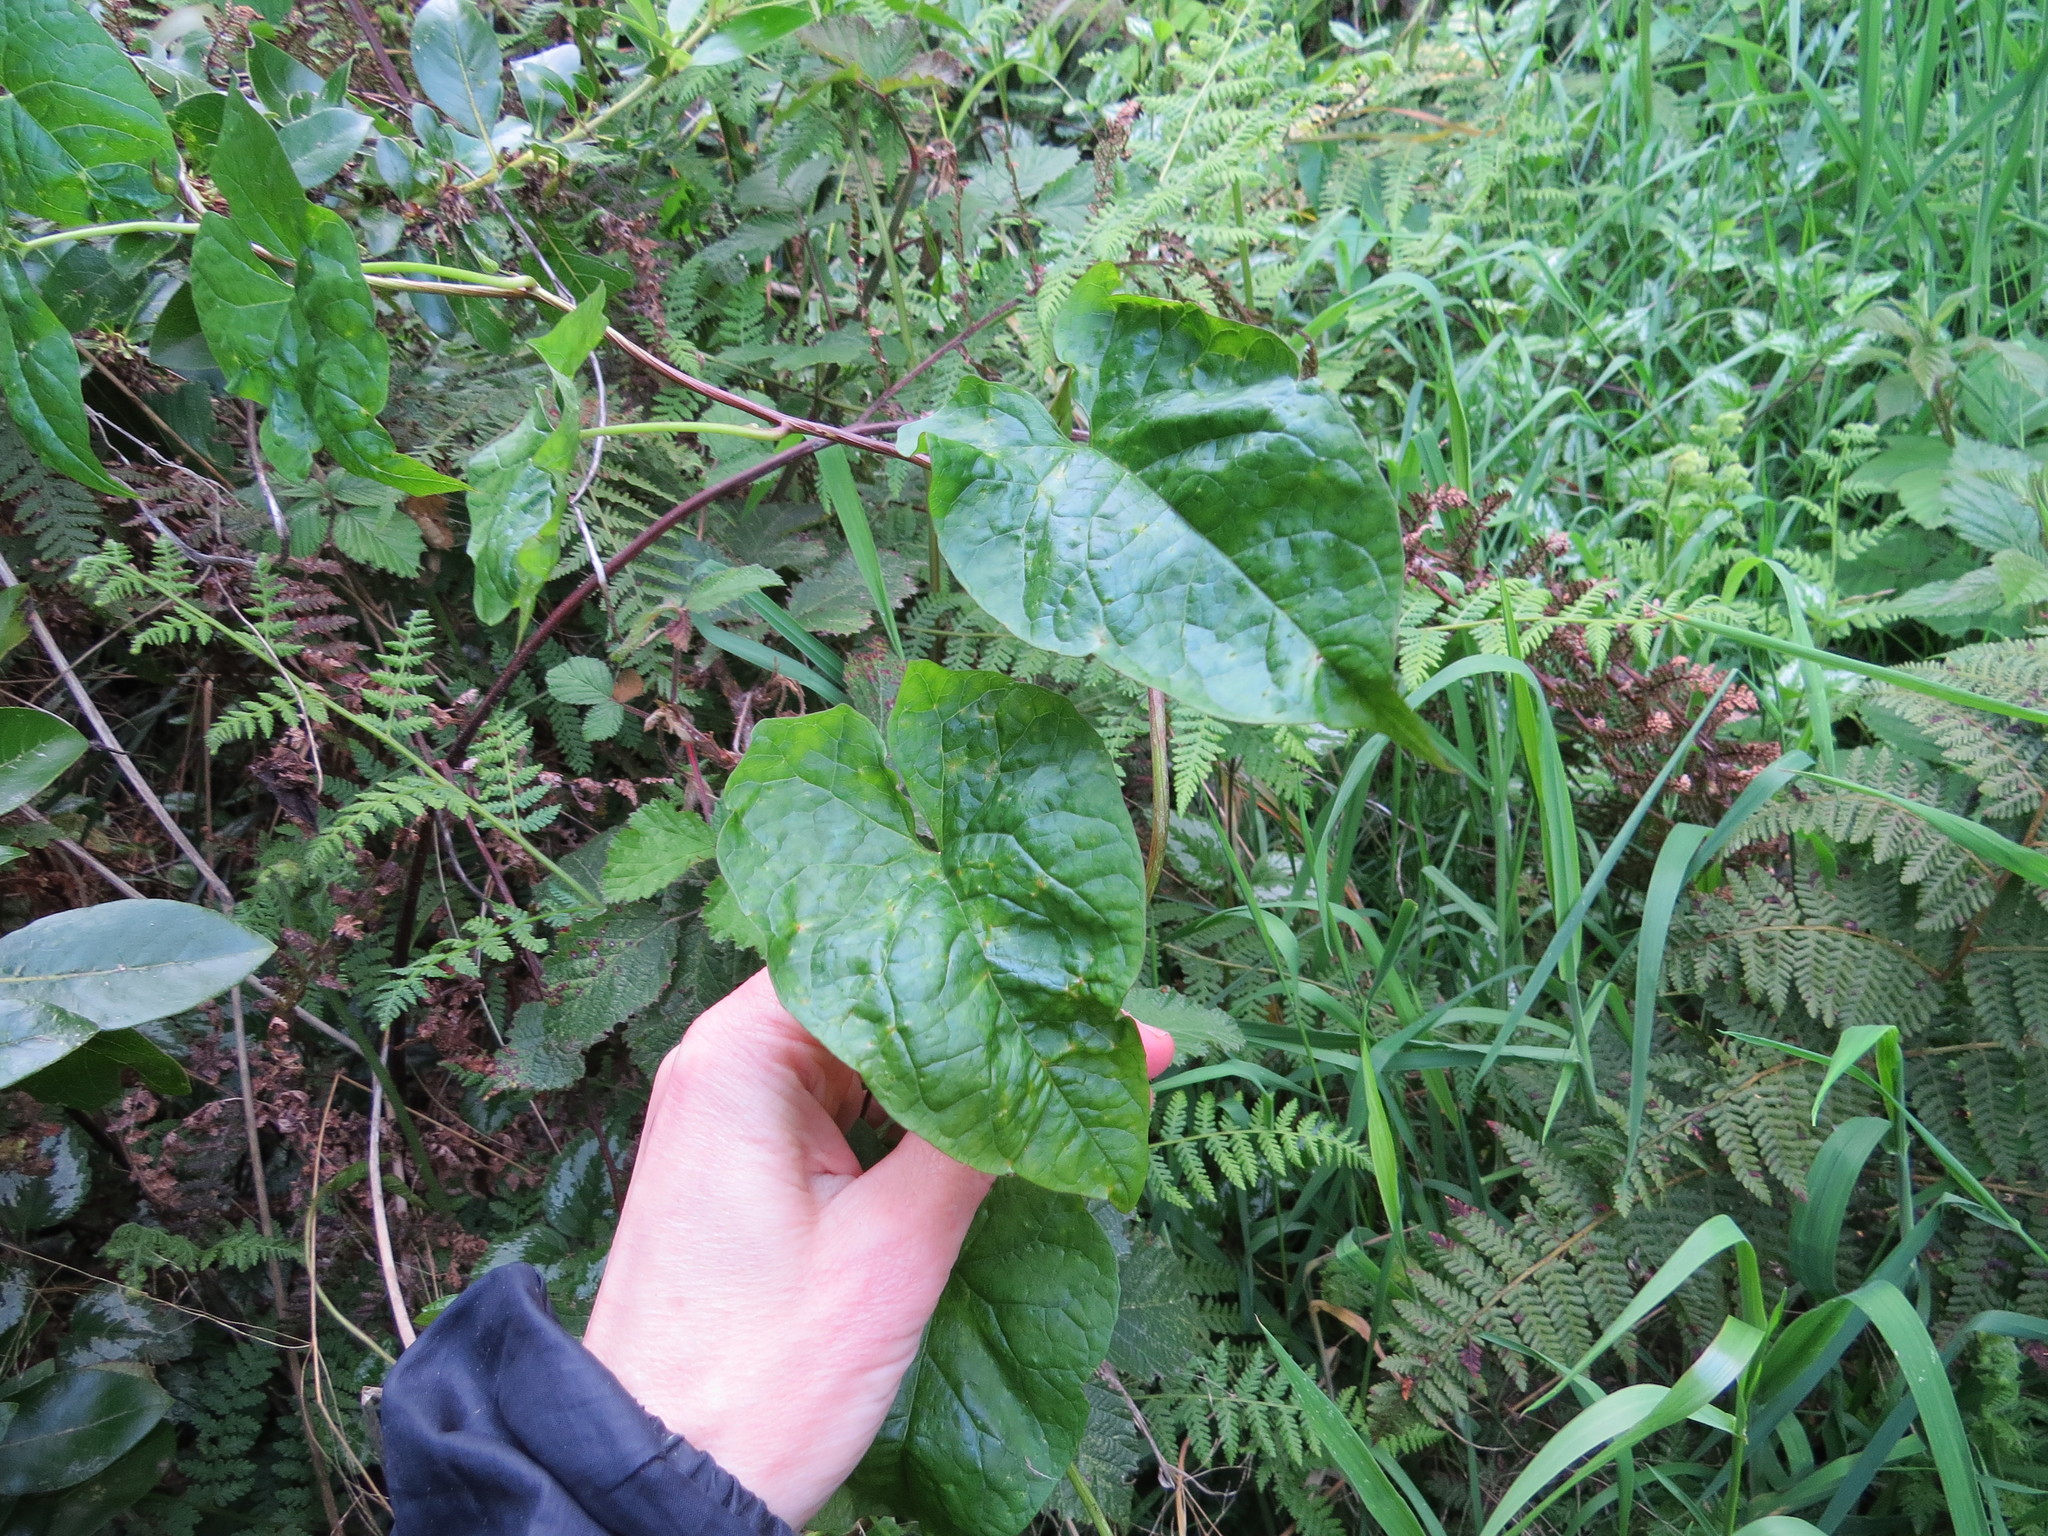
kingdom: Plantae
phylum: Tracheophyta
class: Magnoliopsida
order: Solanales
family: Convolvulaceae
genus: Calystegia
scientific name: Calystegia silvatica
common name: Large bindweed
